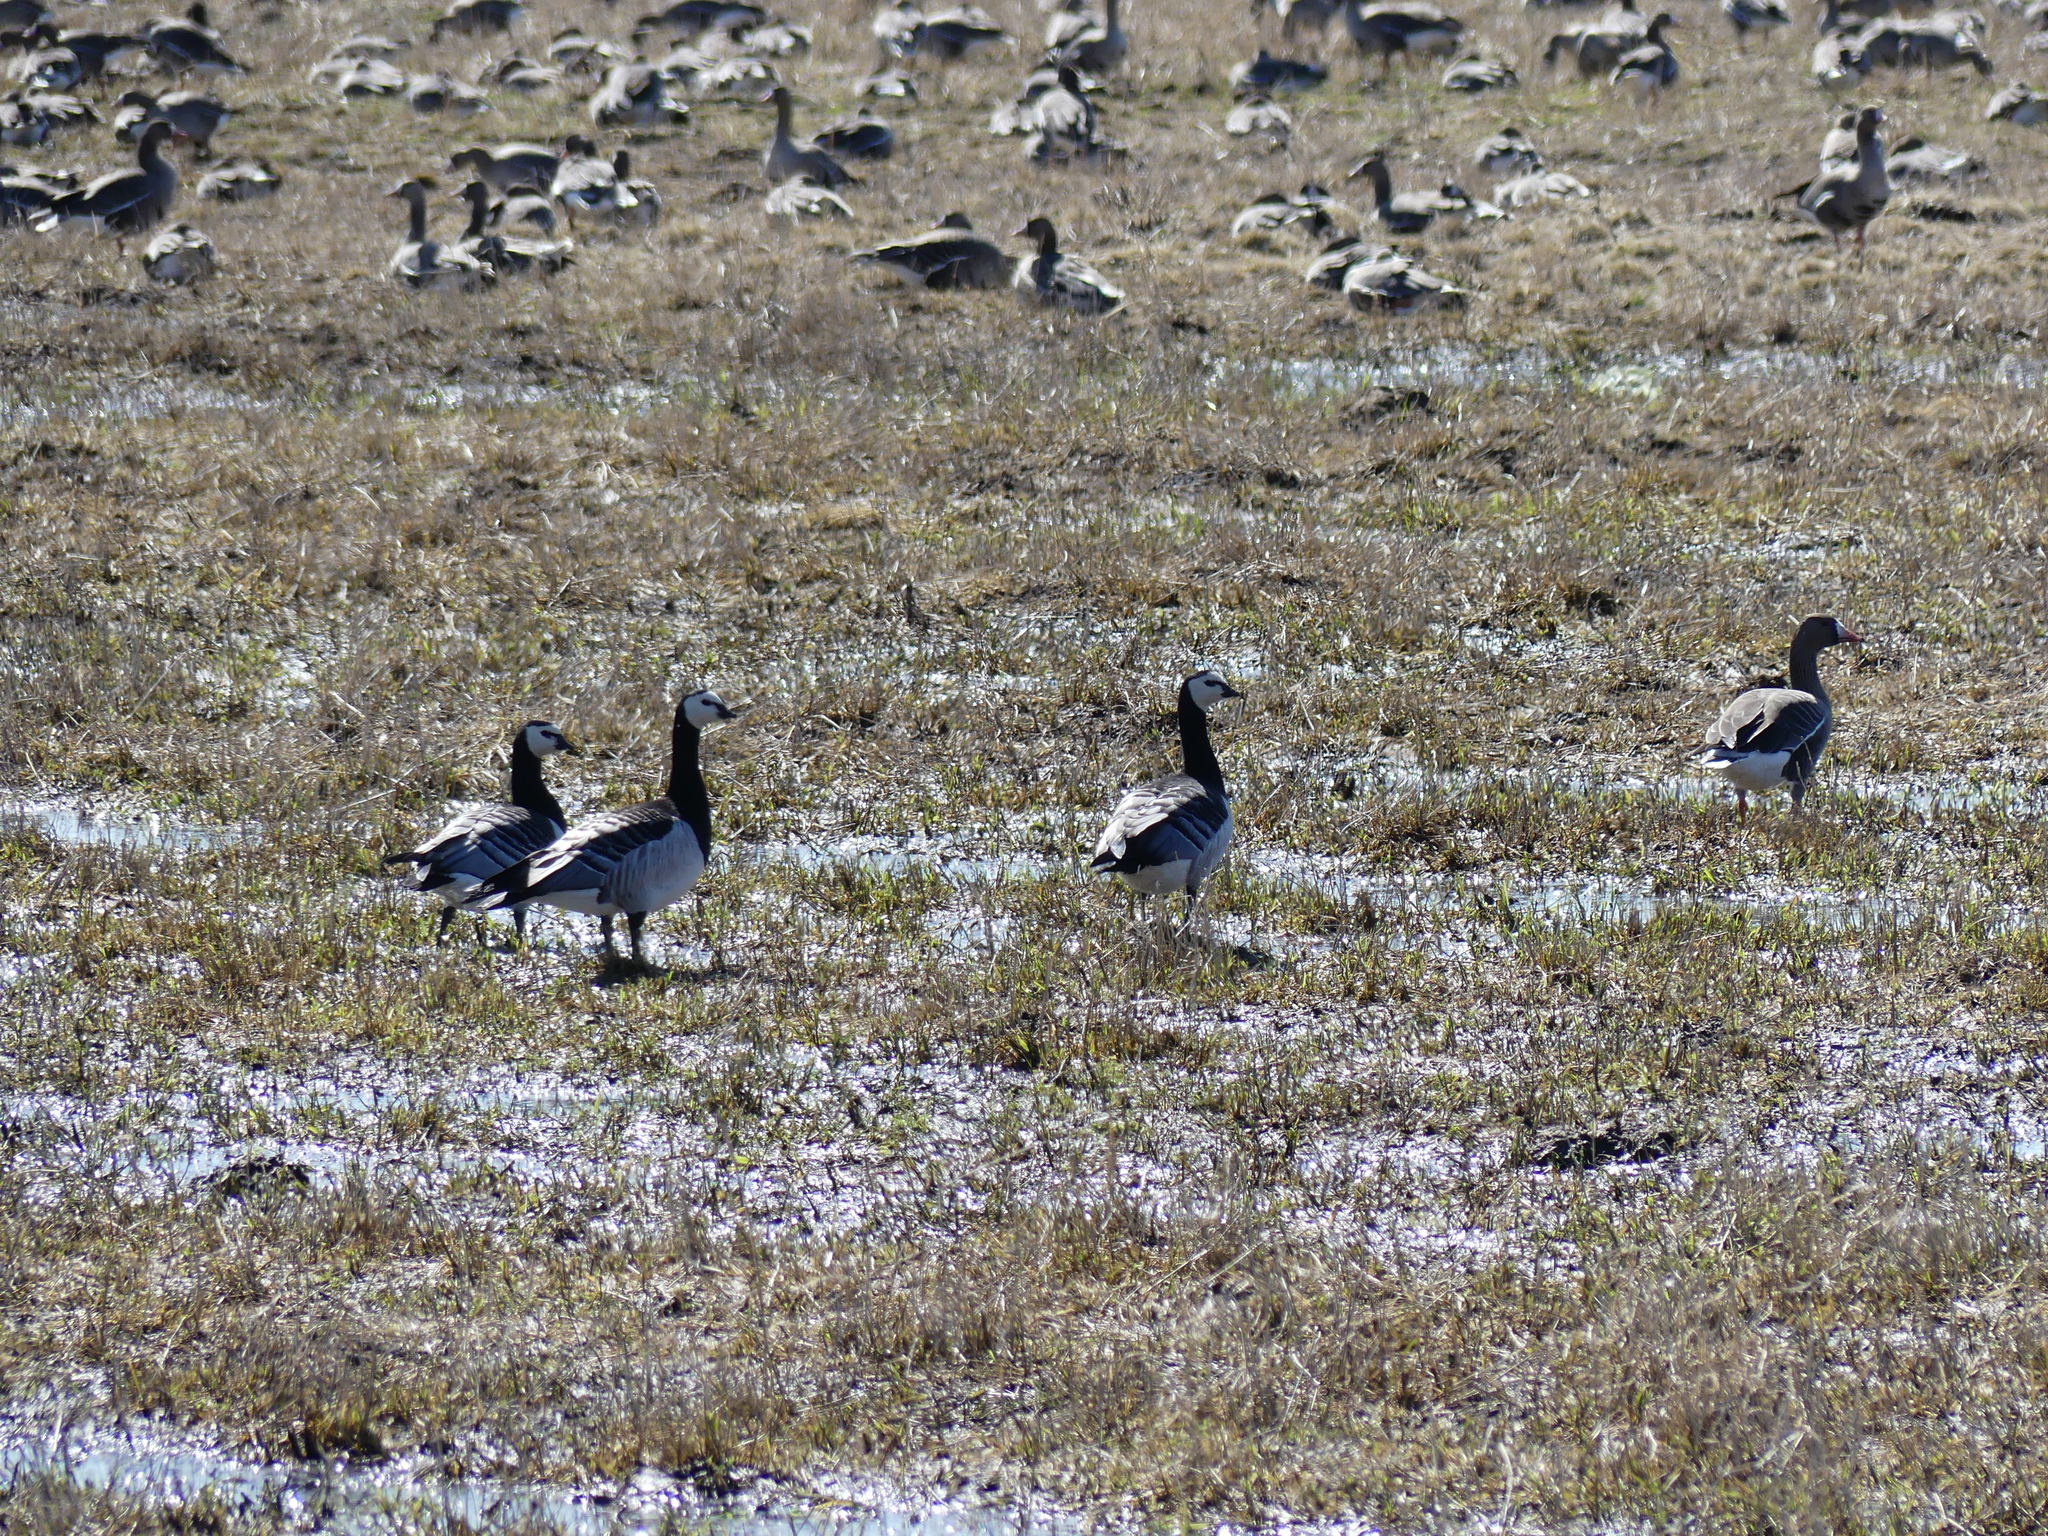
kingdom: Animalia
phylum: Chordata
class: Aves
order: Anseriformes
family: Anatidae
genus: Branta
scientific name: Branta leucopsis
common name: Barnacle goose
